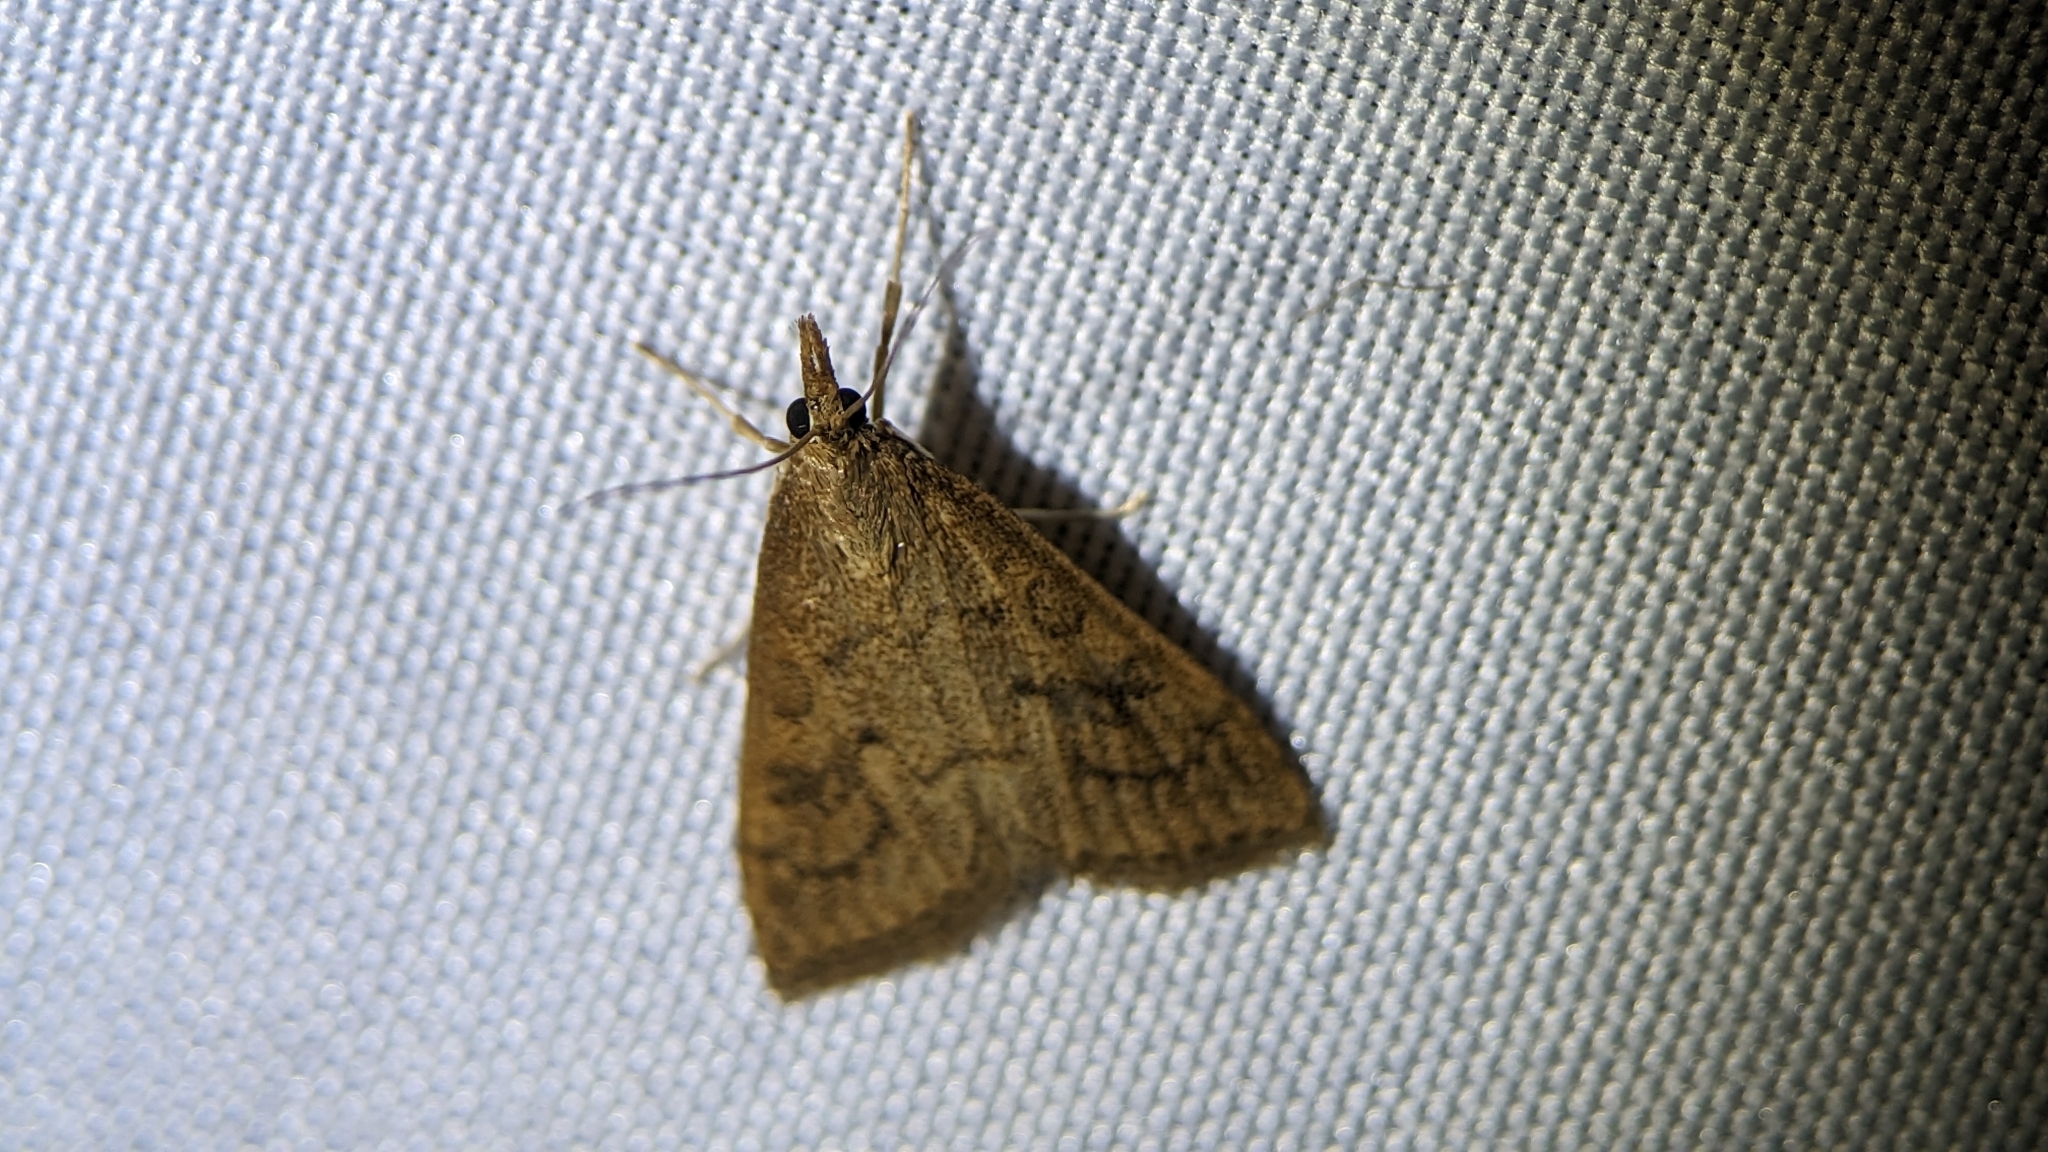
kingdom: Animalia
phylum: Arthropoda
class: Insecta
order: Lepidoptera
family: Crambidae
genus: Udea
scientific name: Udea rubigalis
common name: Celery leaftier moth
